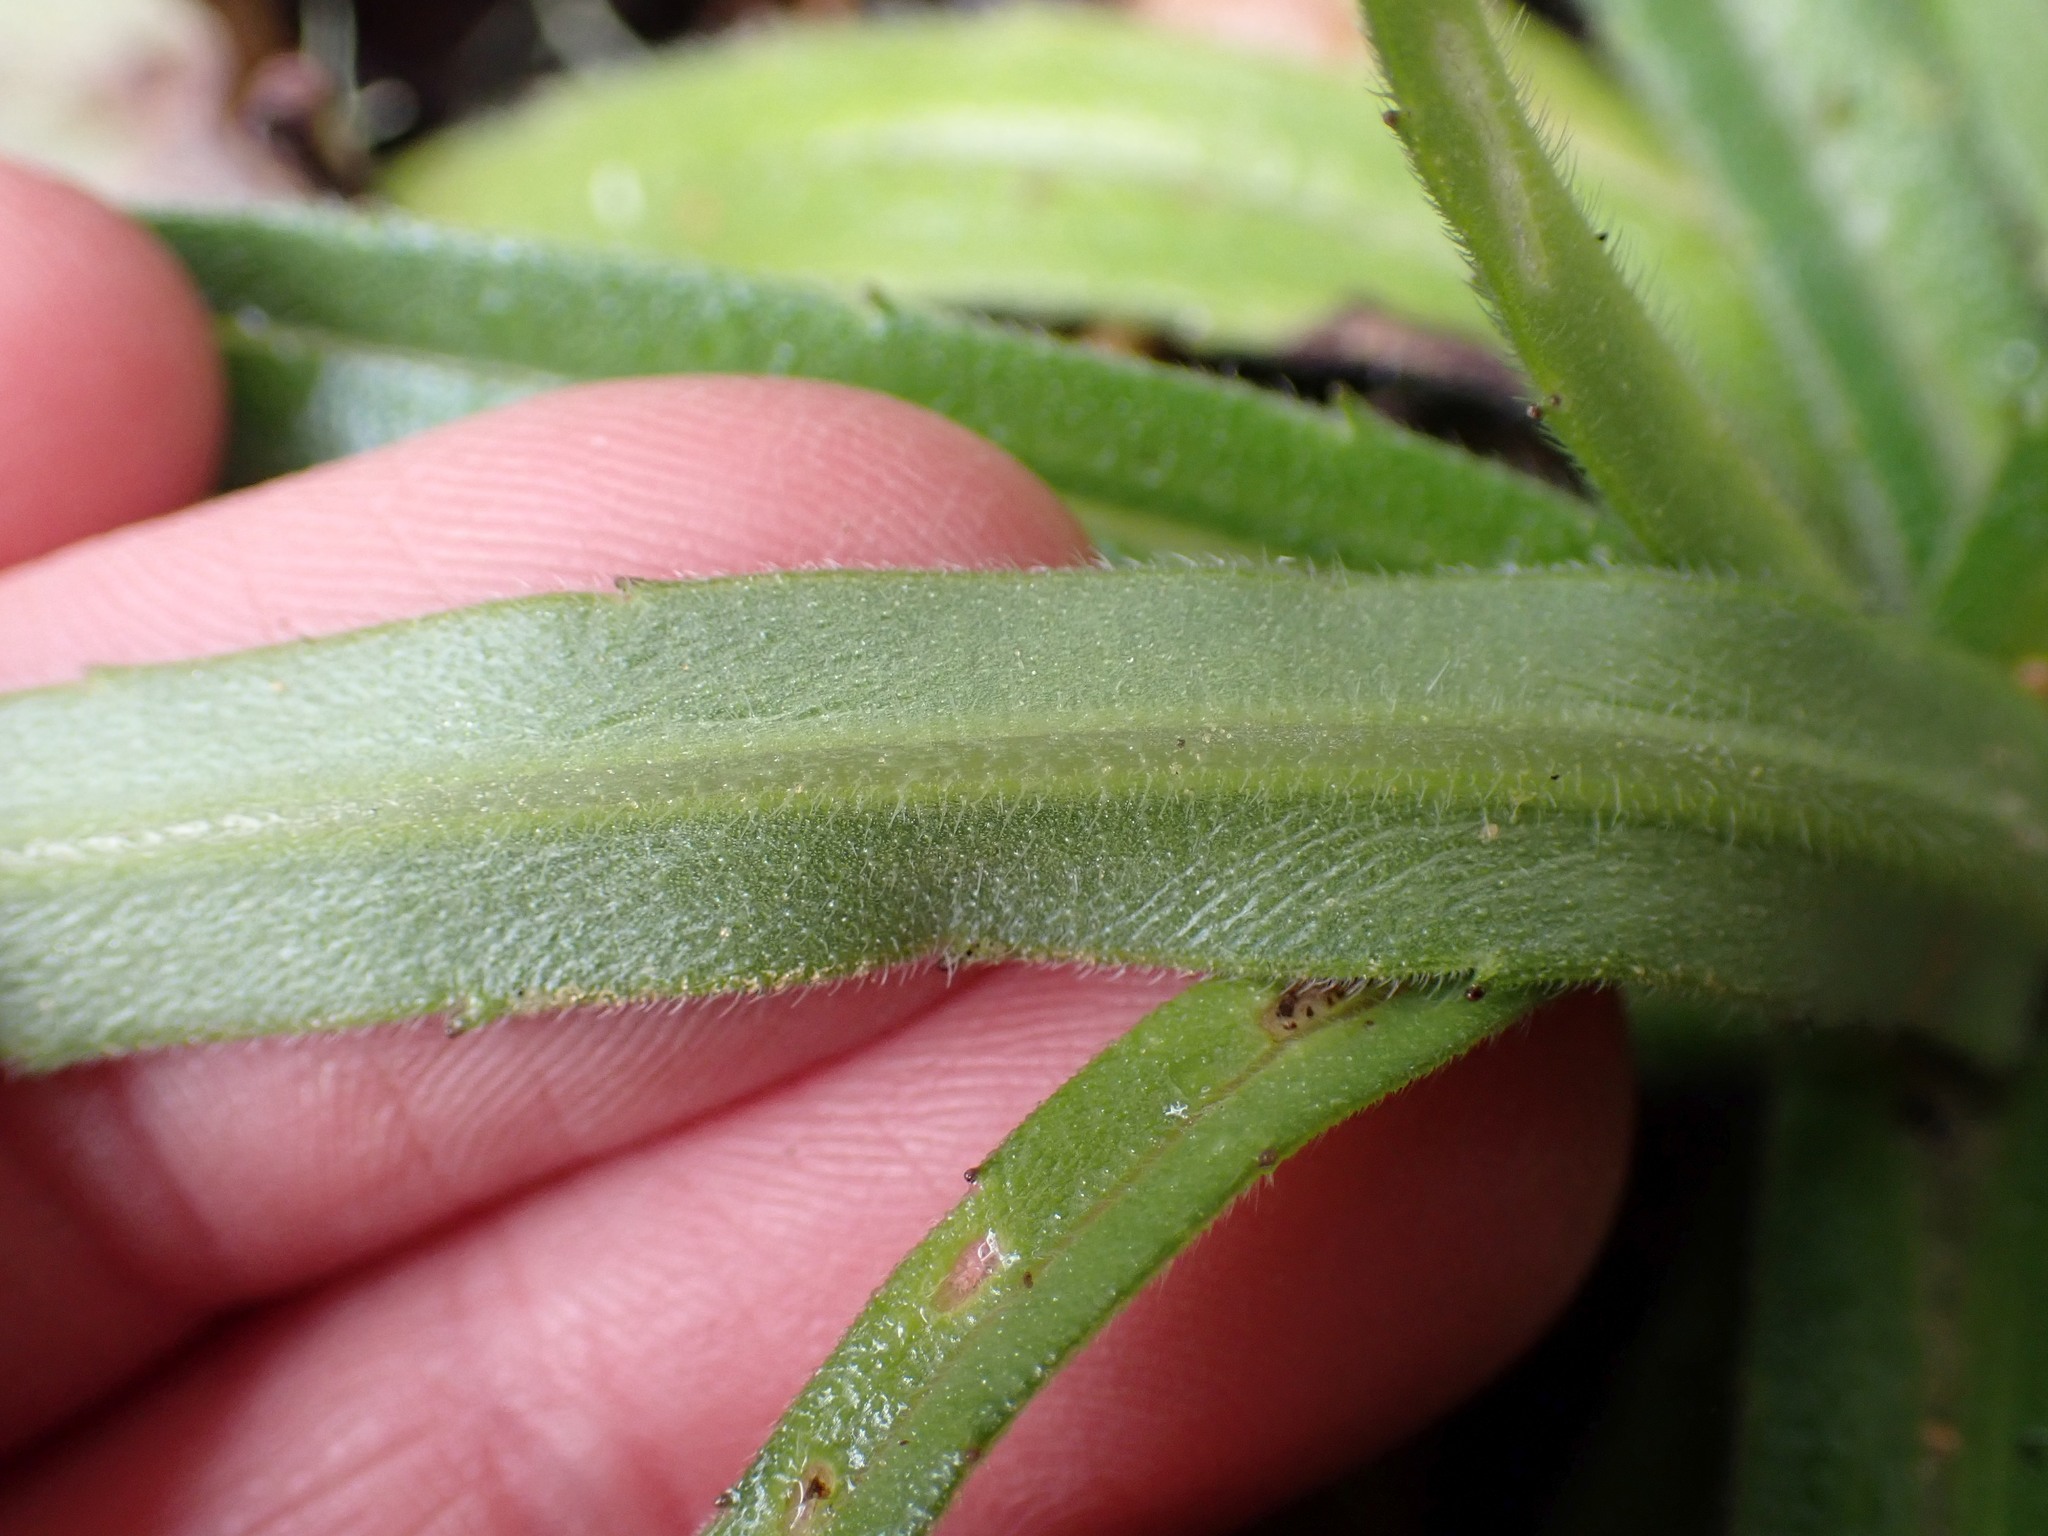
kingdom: Plantae
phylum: Tracheophyta
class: Magnoliopsida
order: Asterales
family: Asteraceae
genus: Anisocarpus
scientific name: Anisocarpus madioides
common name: Woodland madia
